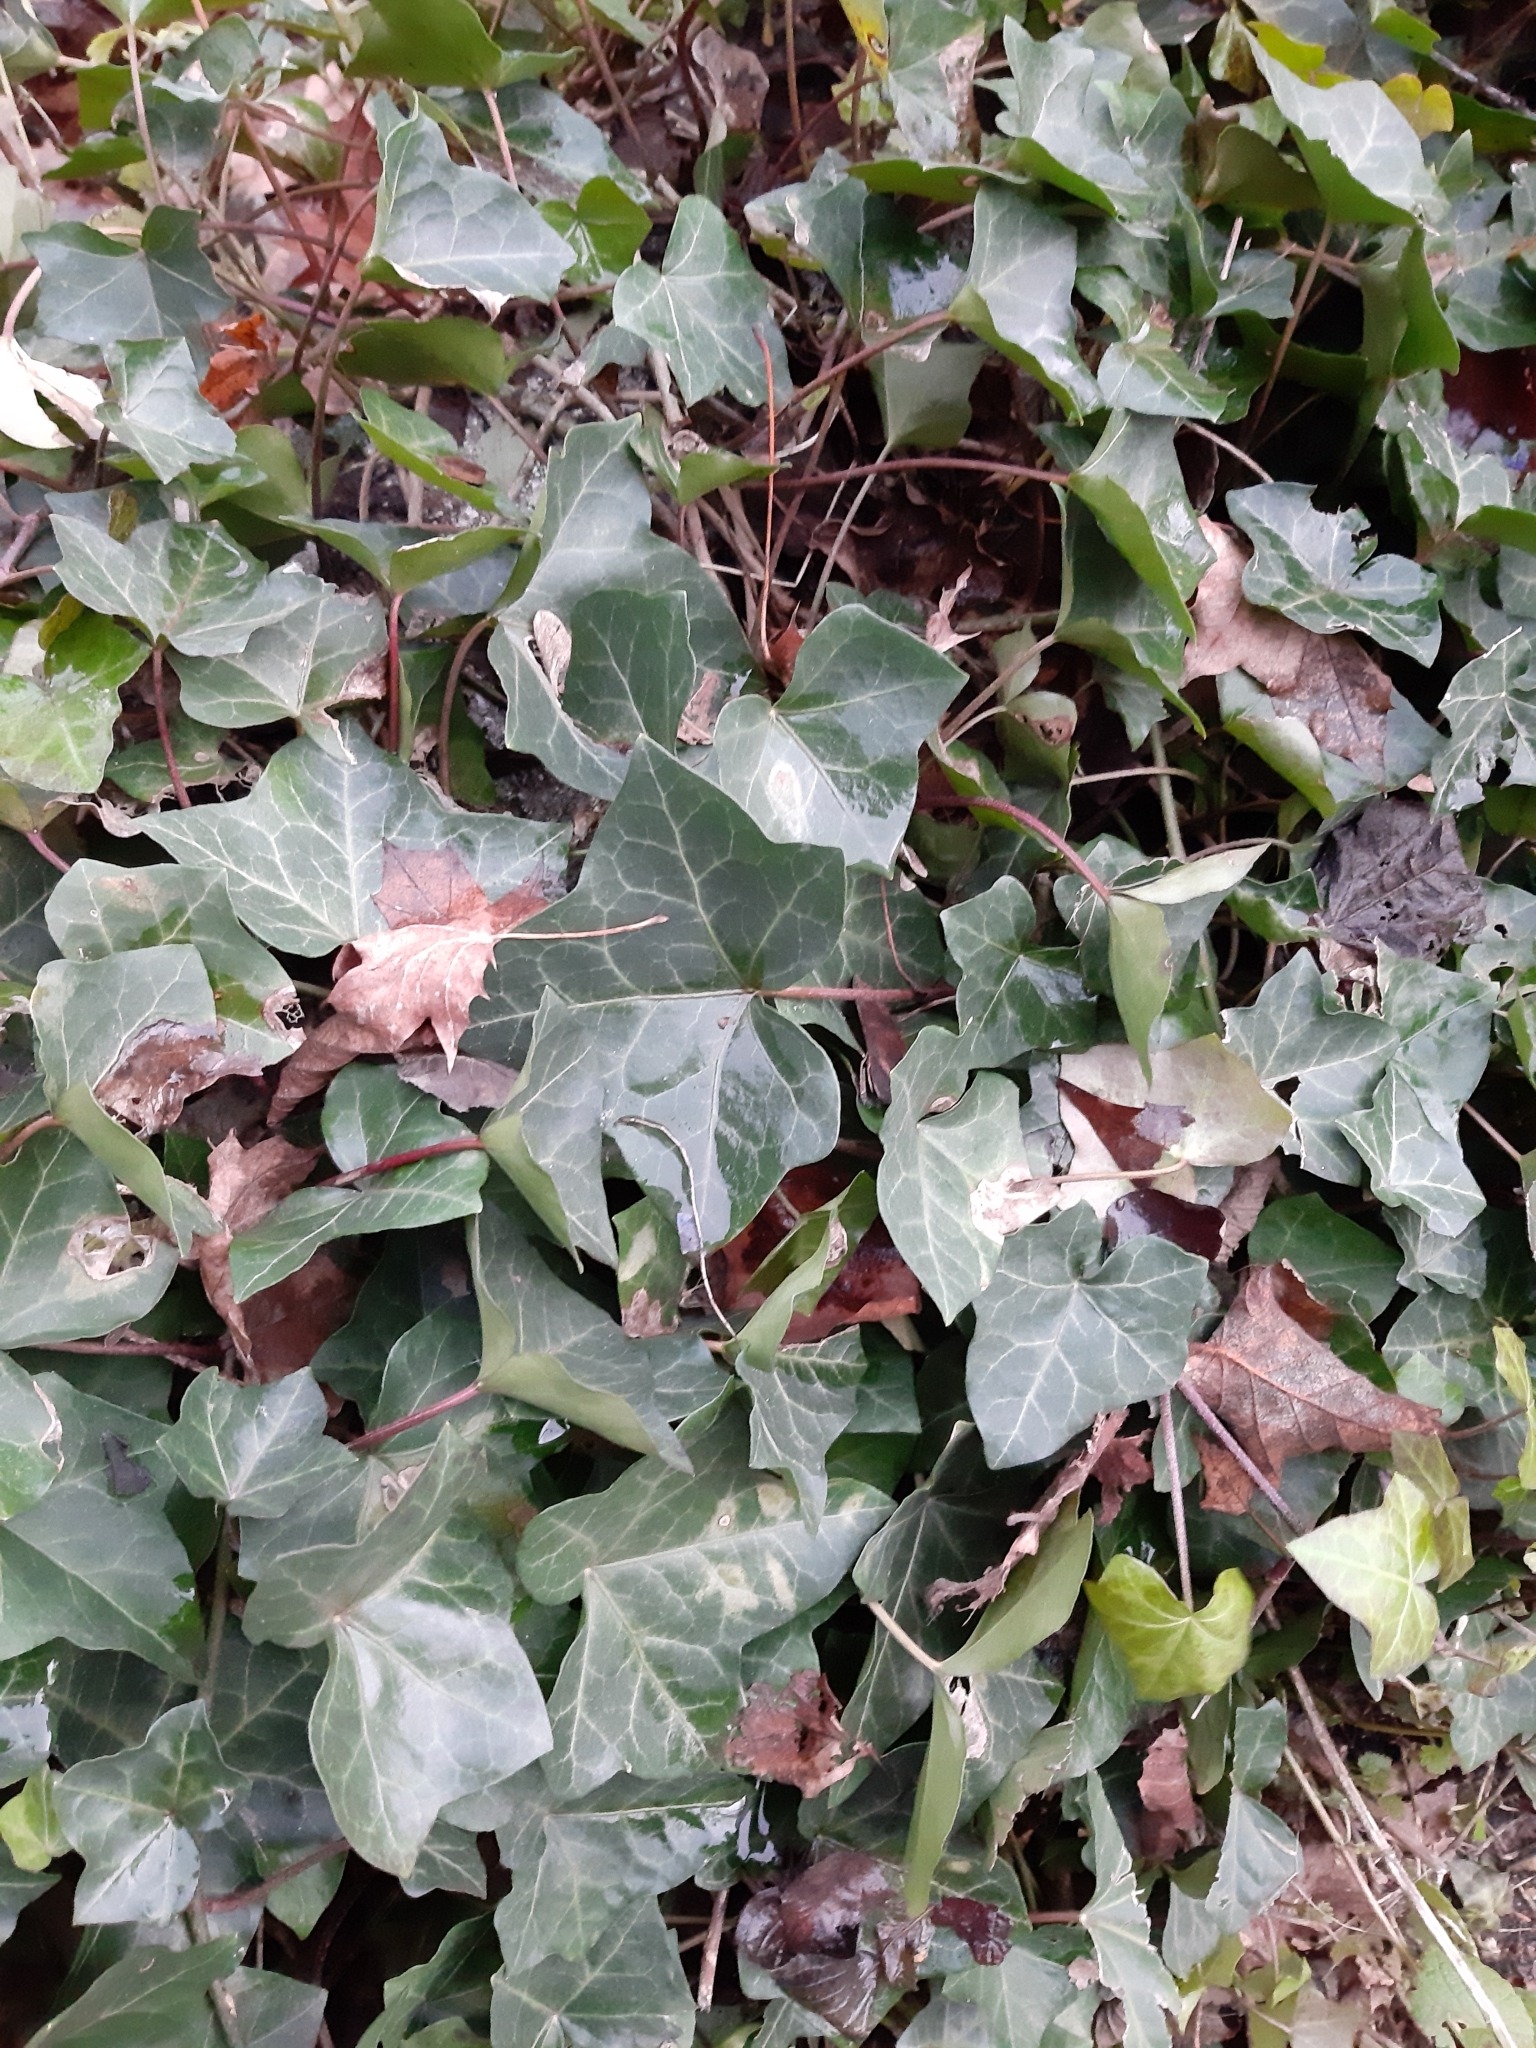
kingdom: Plantae
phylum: Tracheophyta
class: Magnoliopsida
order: Apiales
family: Araliaceae
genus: Hedera
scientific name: Hedera helix
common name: Ivy
